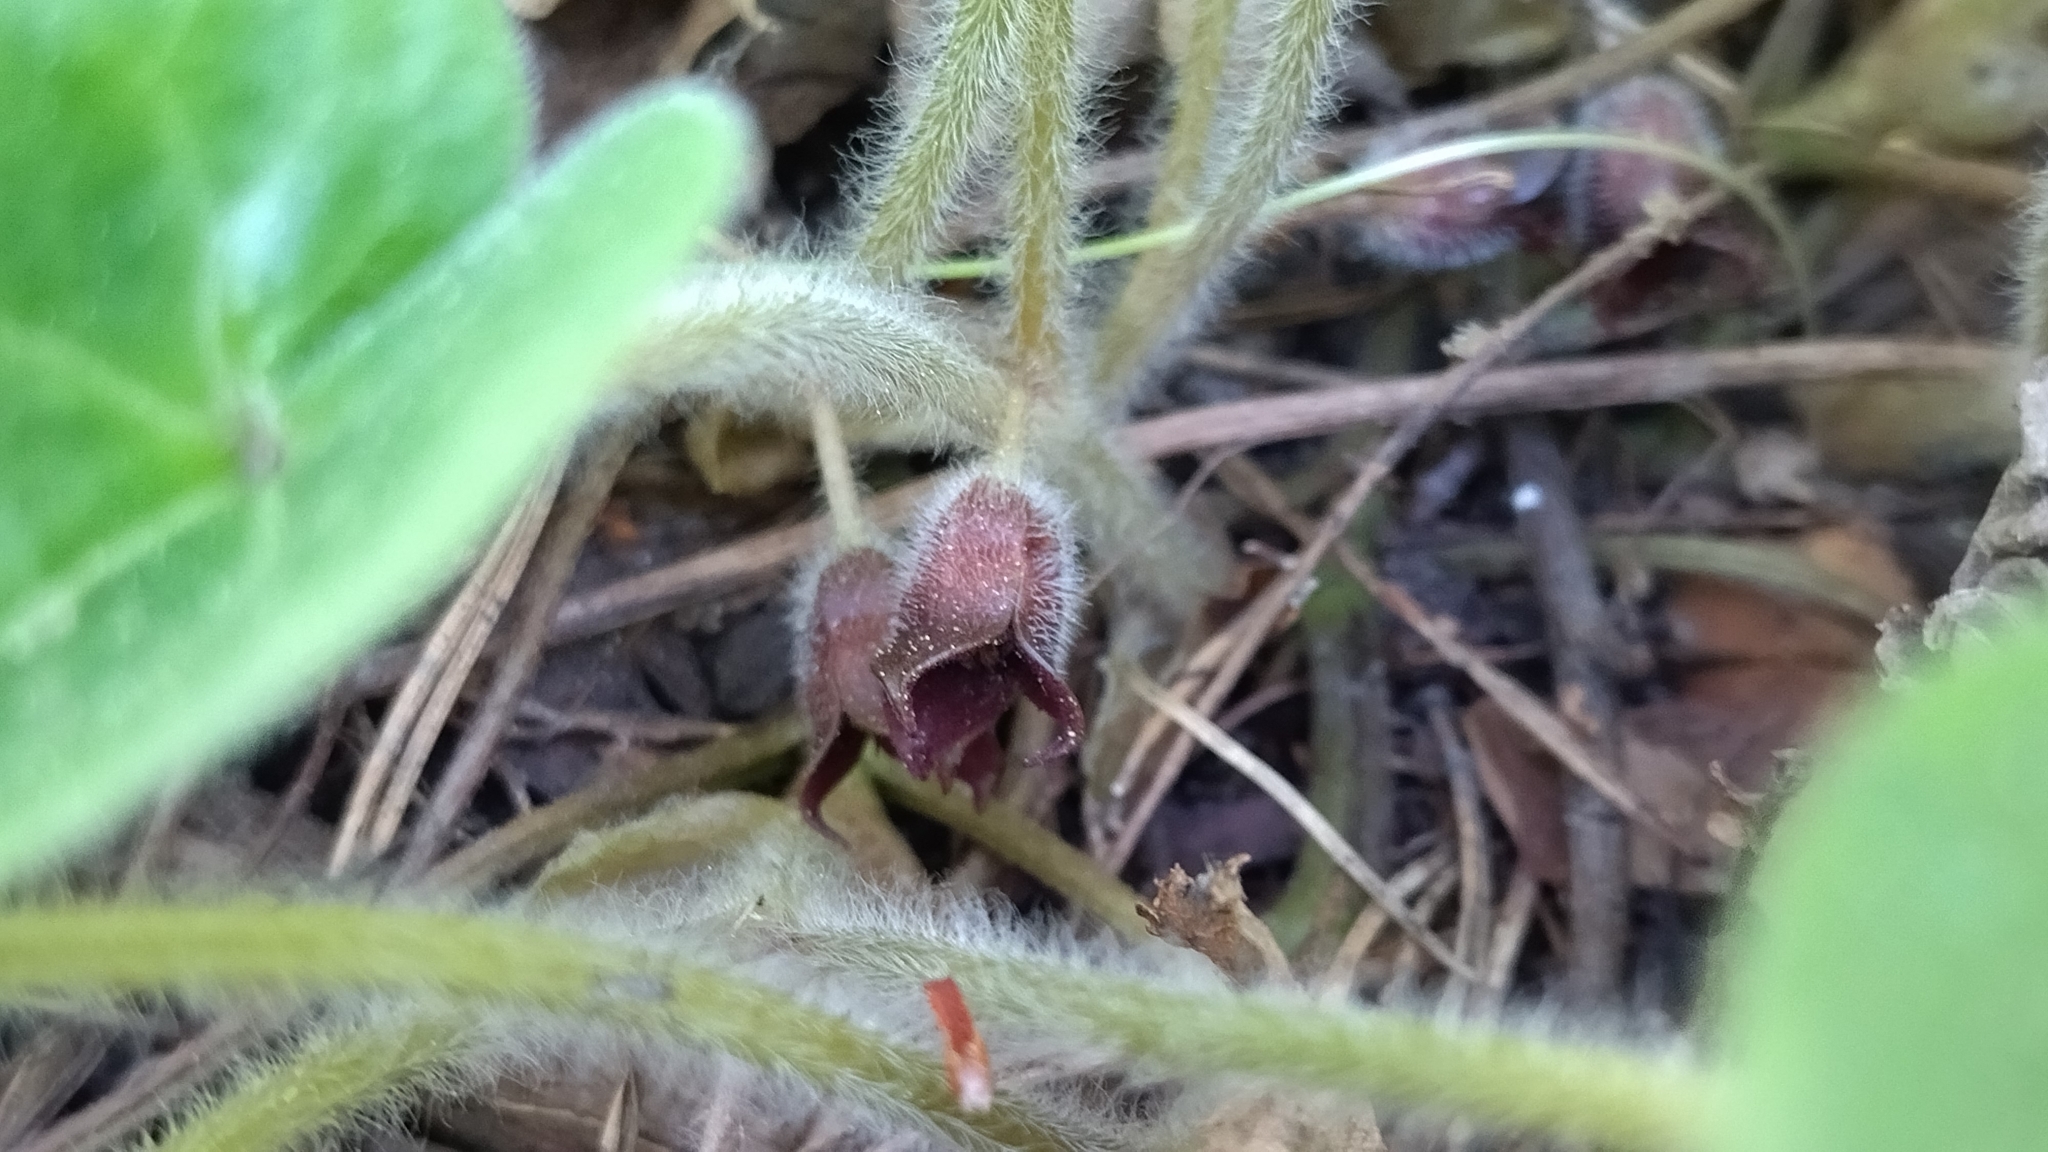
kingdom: Plantae
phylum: Tracheophyta
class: Magnoliopsida
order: Piperales
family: Aristolochiaceae
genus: Asarum
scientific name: Asarum europaeum
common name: Asarabacca
